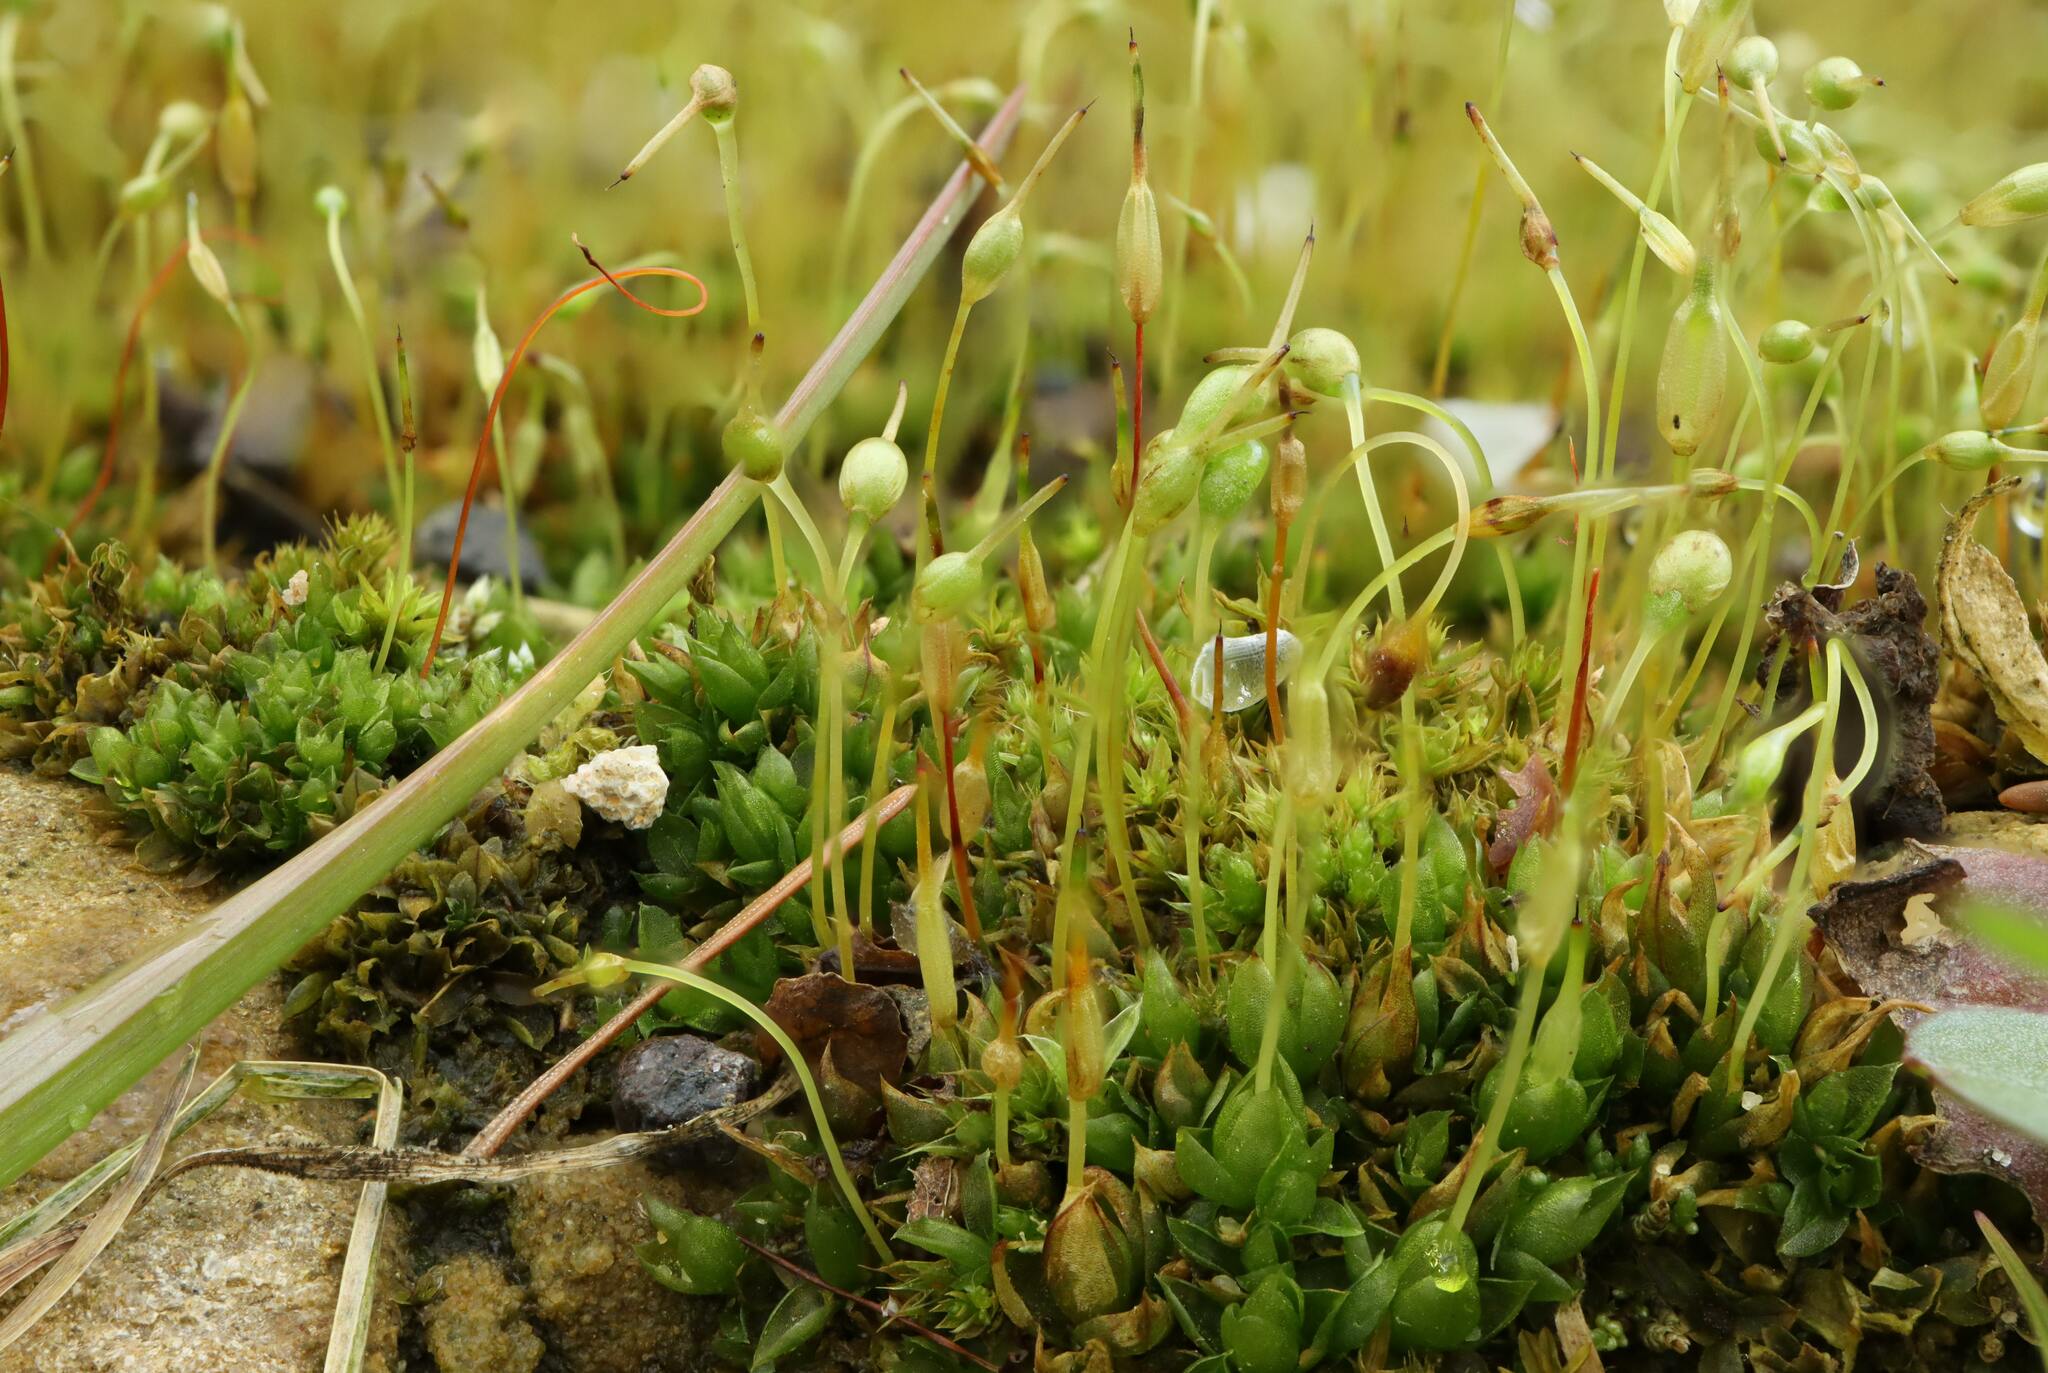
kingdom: Plantae
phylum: Bryophyta
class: Bryopsida
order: Funariales
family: Funariaceae
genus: Funaria
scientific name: Funaria hygrometrica
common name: Common cord moss
